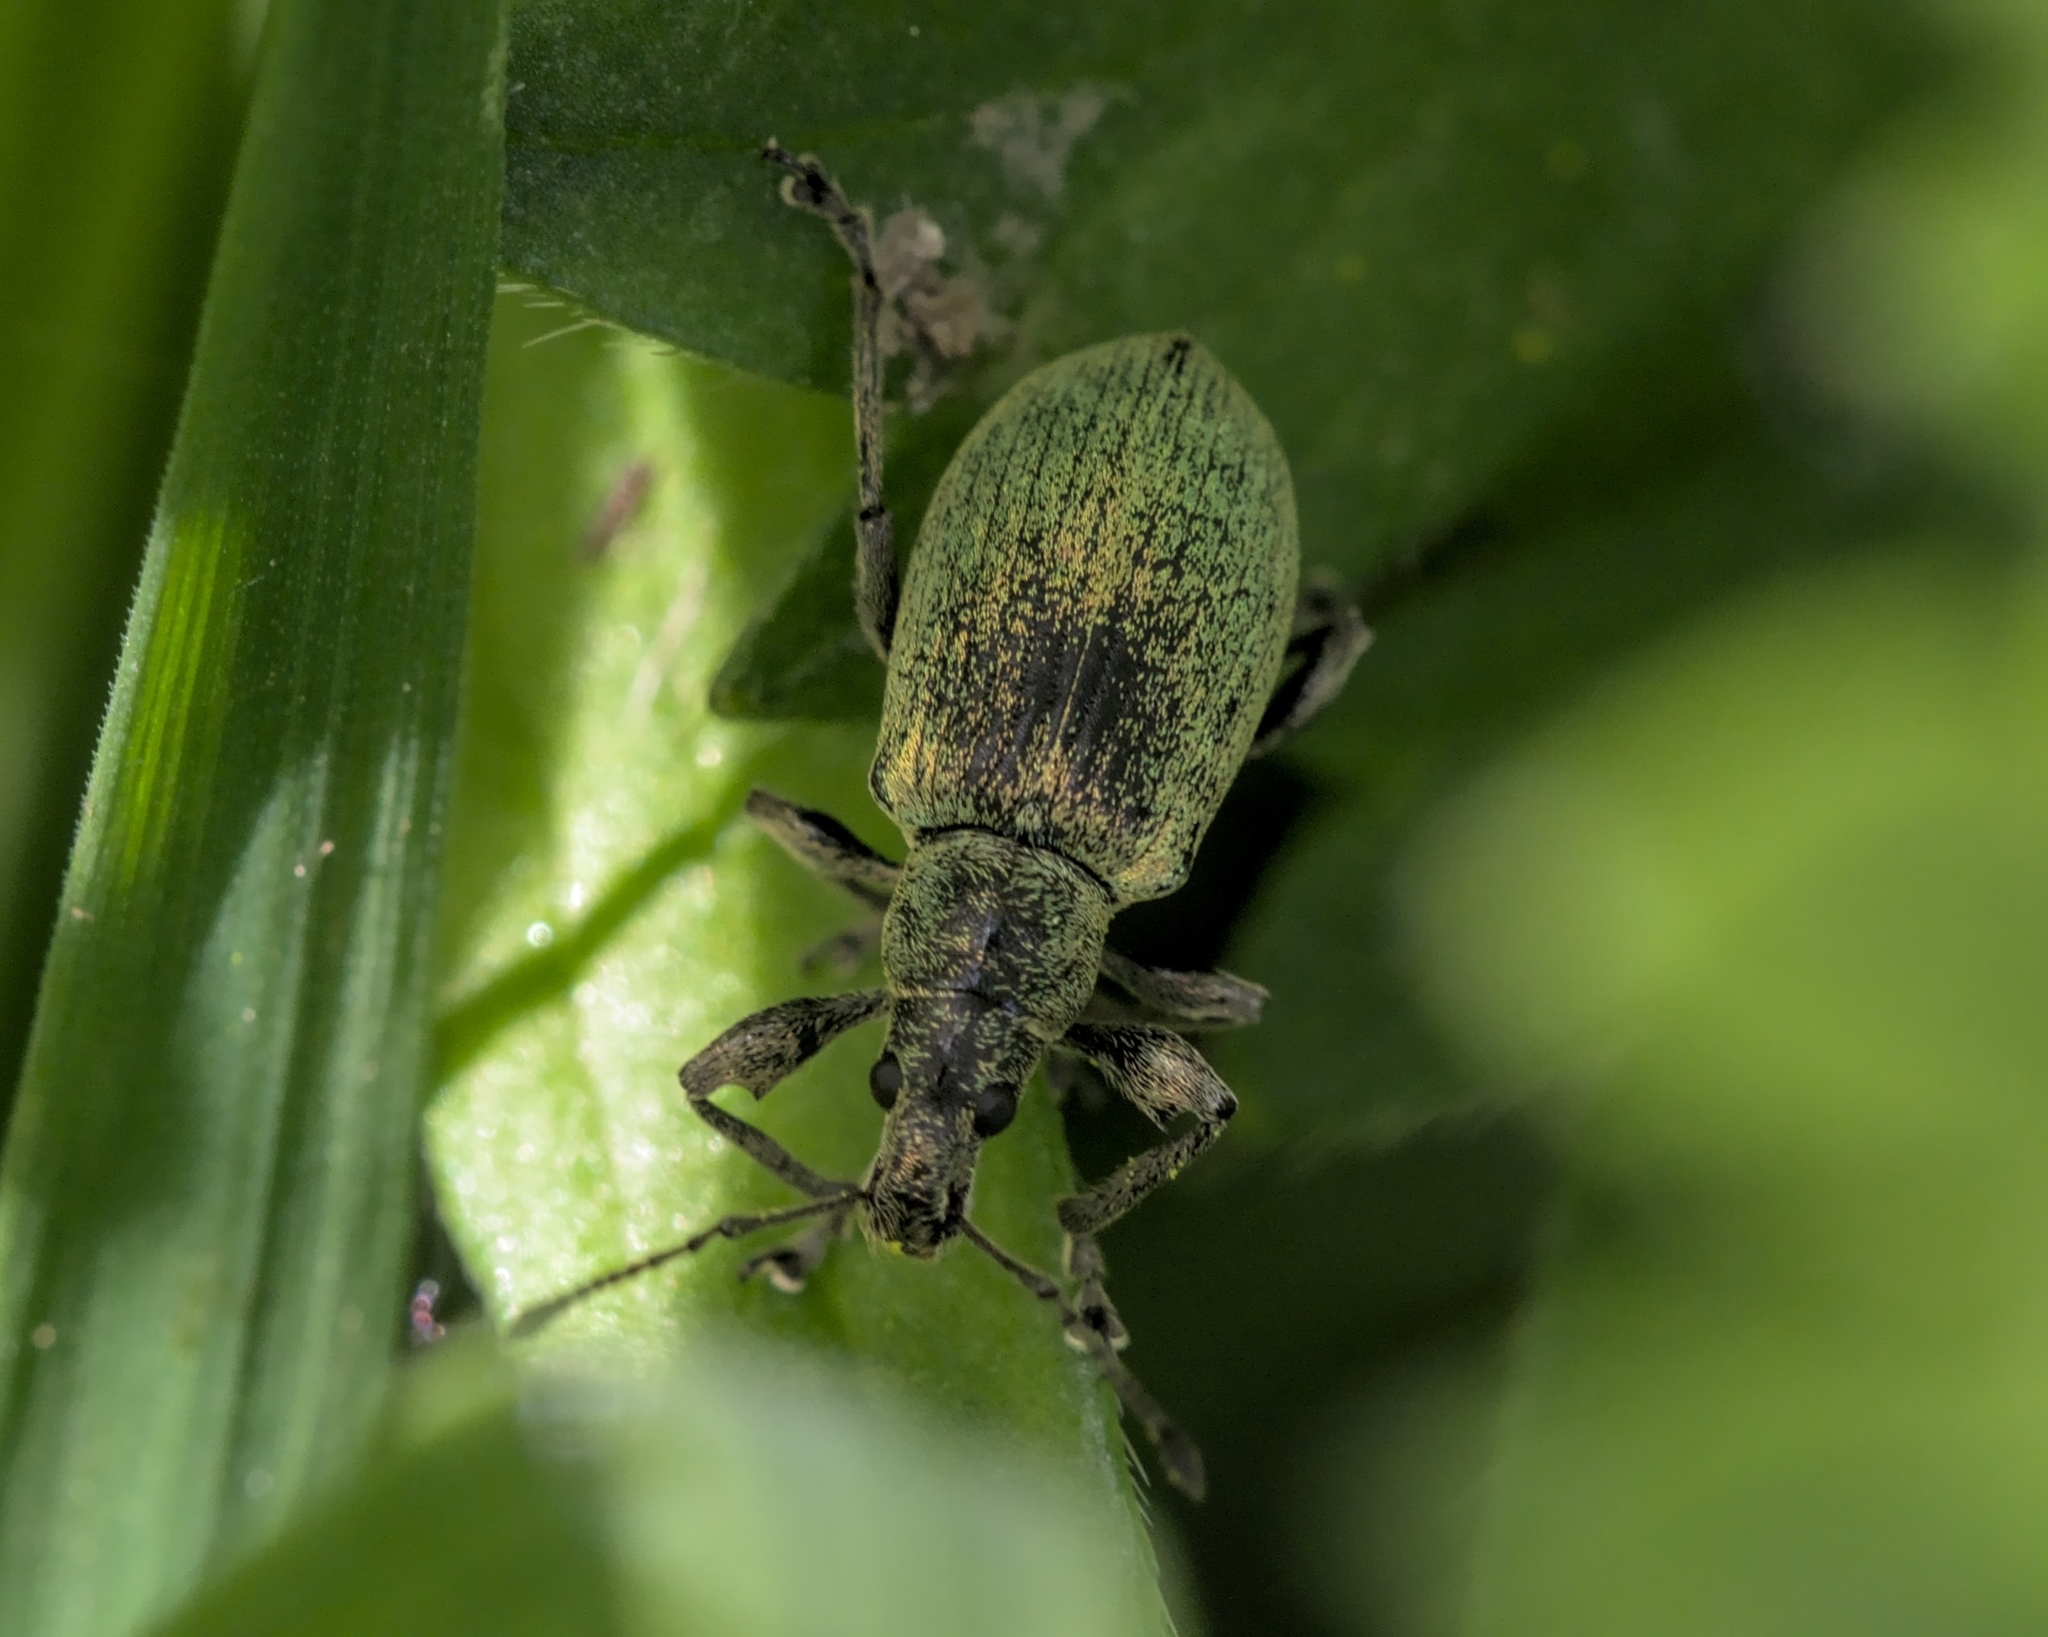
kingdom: Animalia
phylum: Arthropoda
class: Insecta
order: Coleoptera
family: Curculionidae
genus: Phyllobius
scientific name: Phyllobius pomaceus
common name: Green nettle weevil
